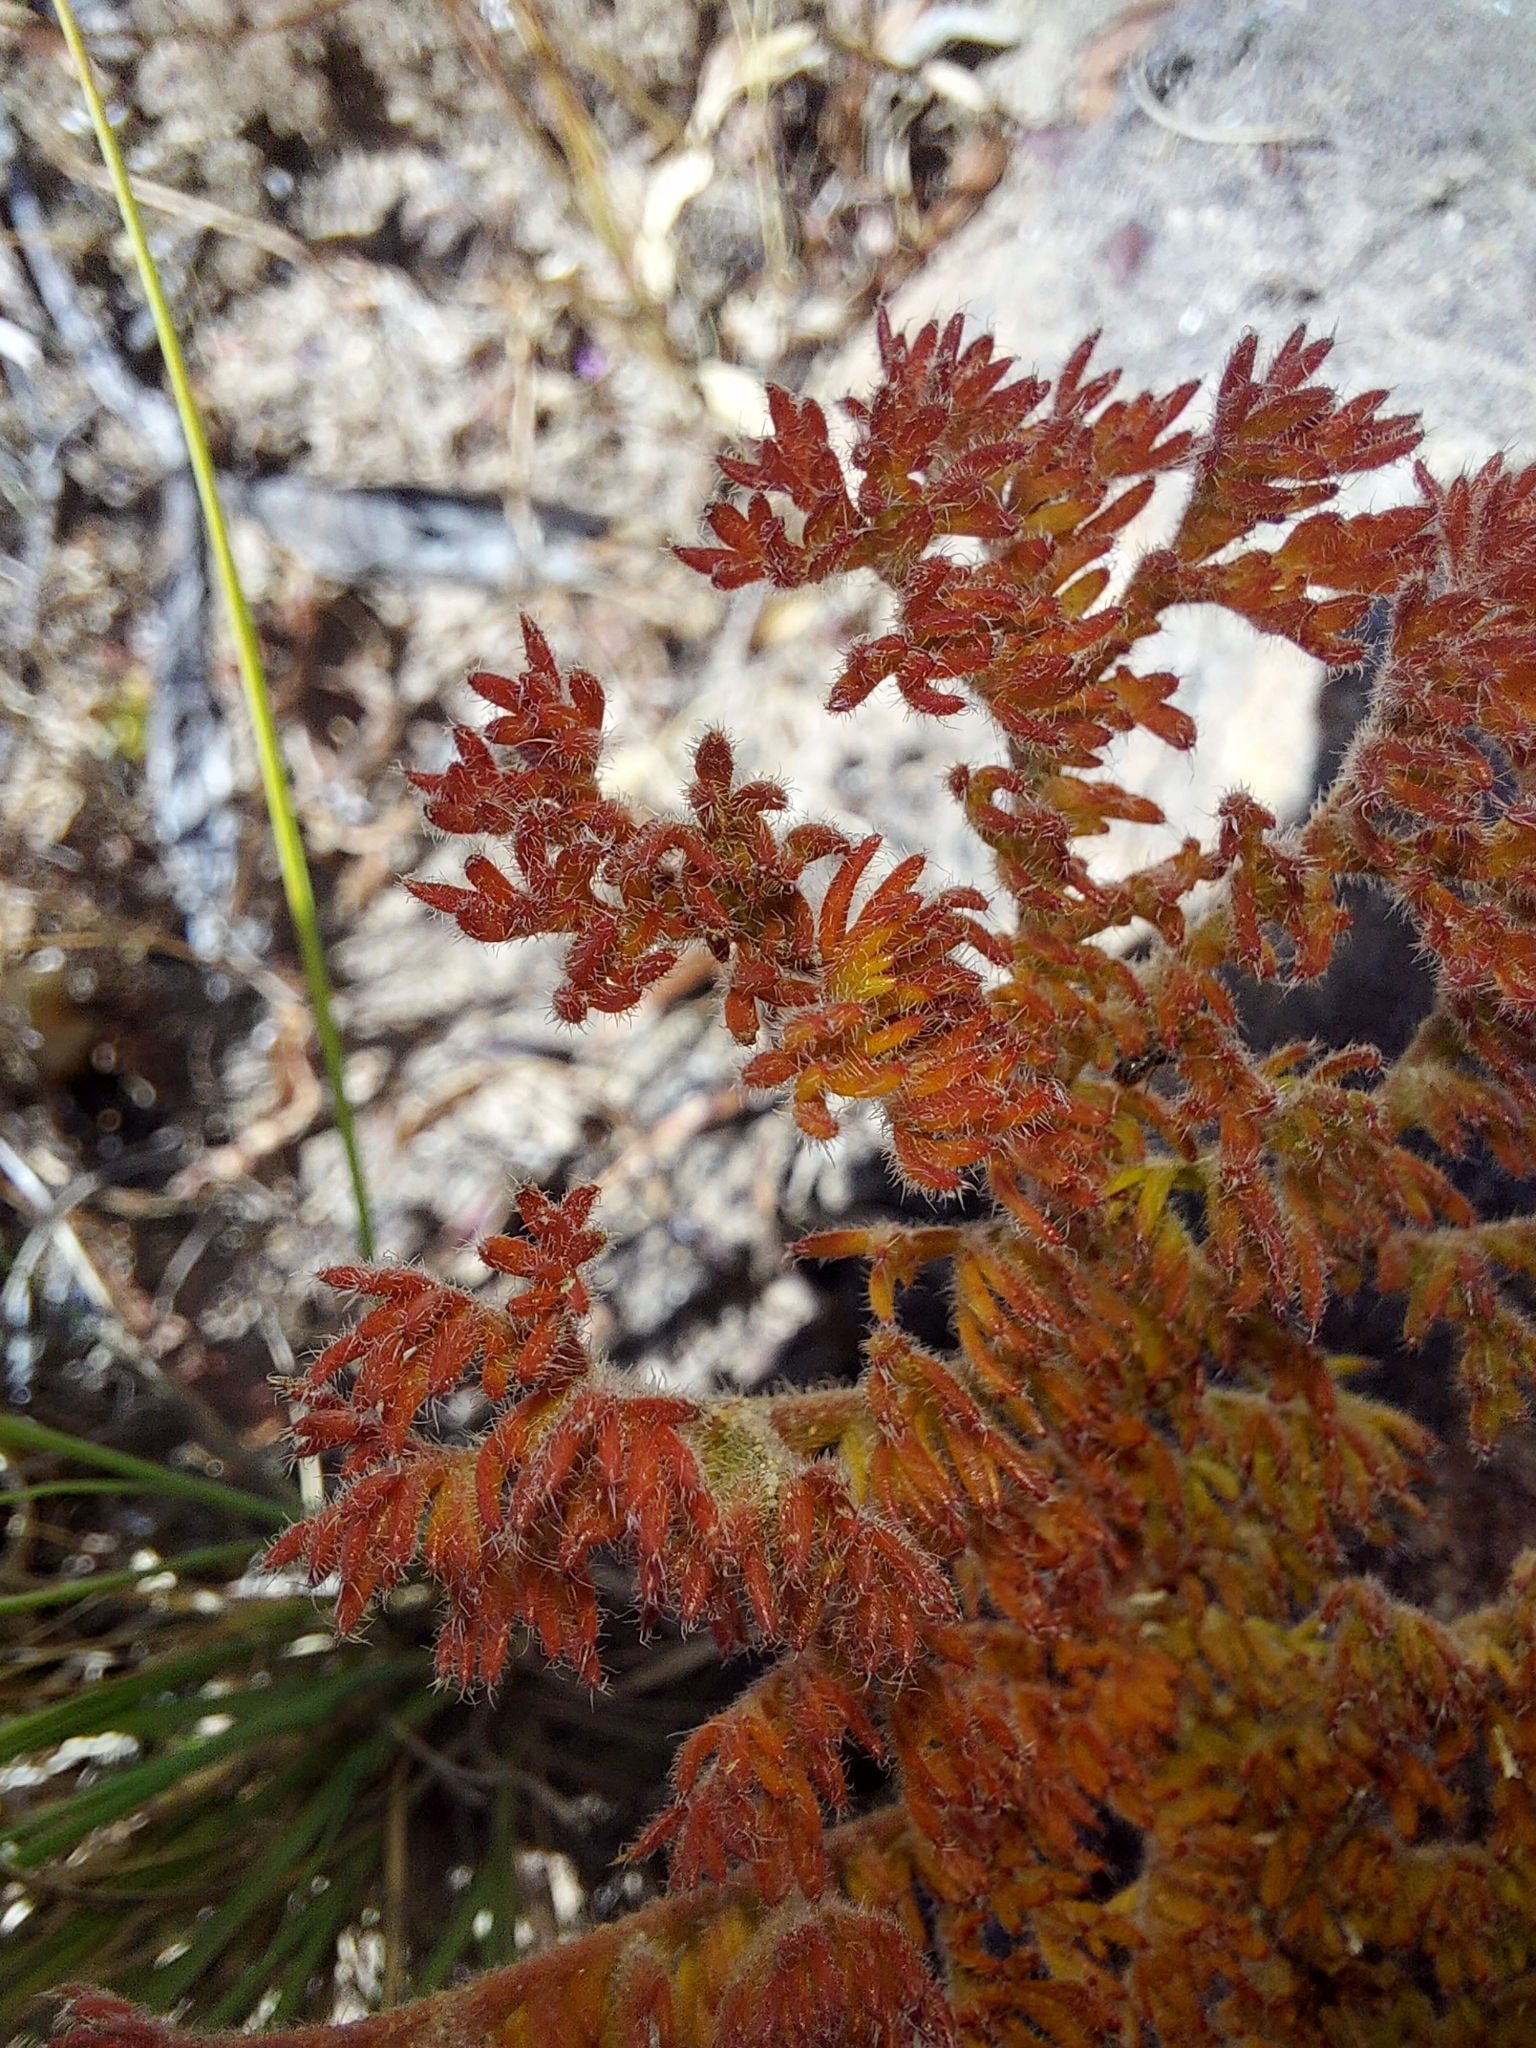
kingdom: Plantae
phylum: Tracheophyta
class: Magnoliopsida
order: Geraniales
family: Geraniaceae
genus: Pelargonium
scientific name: Pelargonium triste
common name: Night-scent pelargonium
